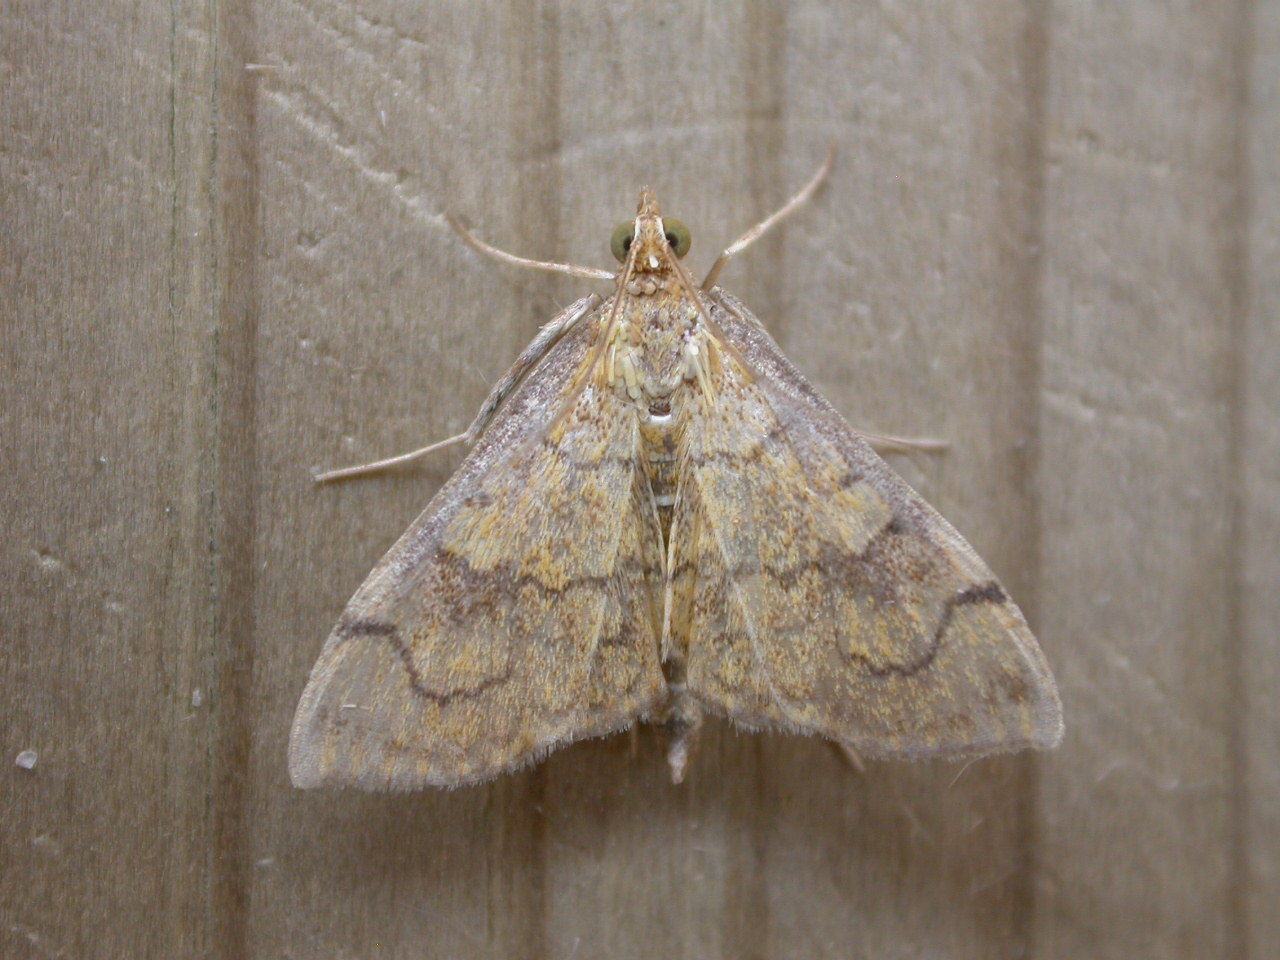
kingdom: Animalia
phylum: Arthropoda
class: Insecta
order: Lepidoptera
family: Crambidae
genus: Anania
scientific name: Anania verbascalis
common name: Golden pearl
